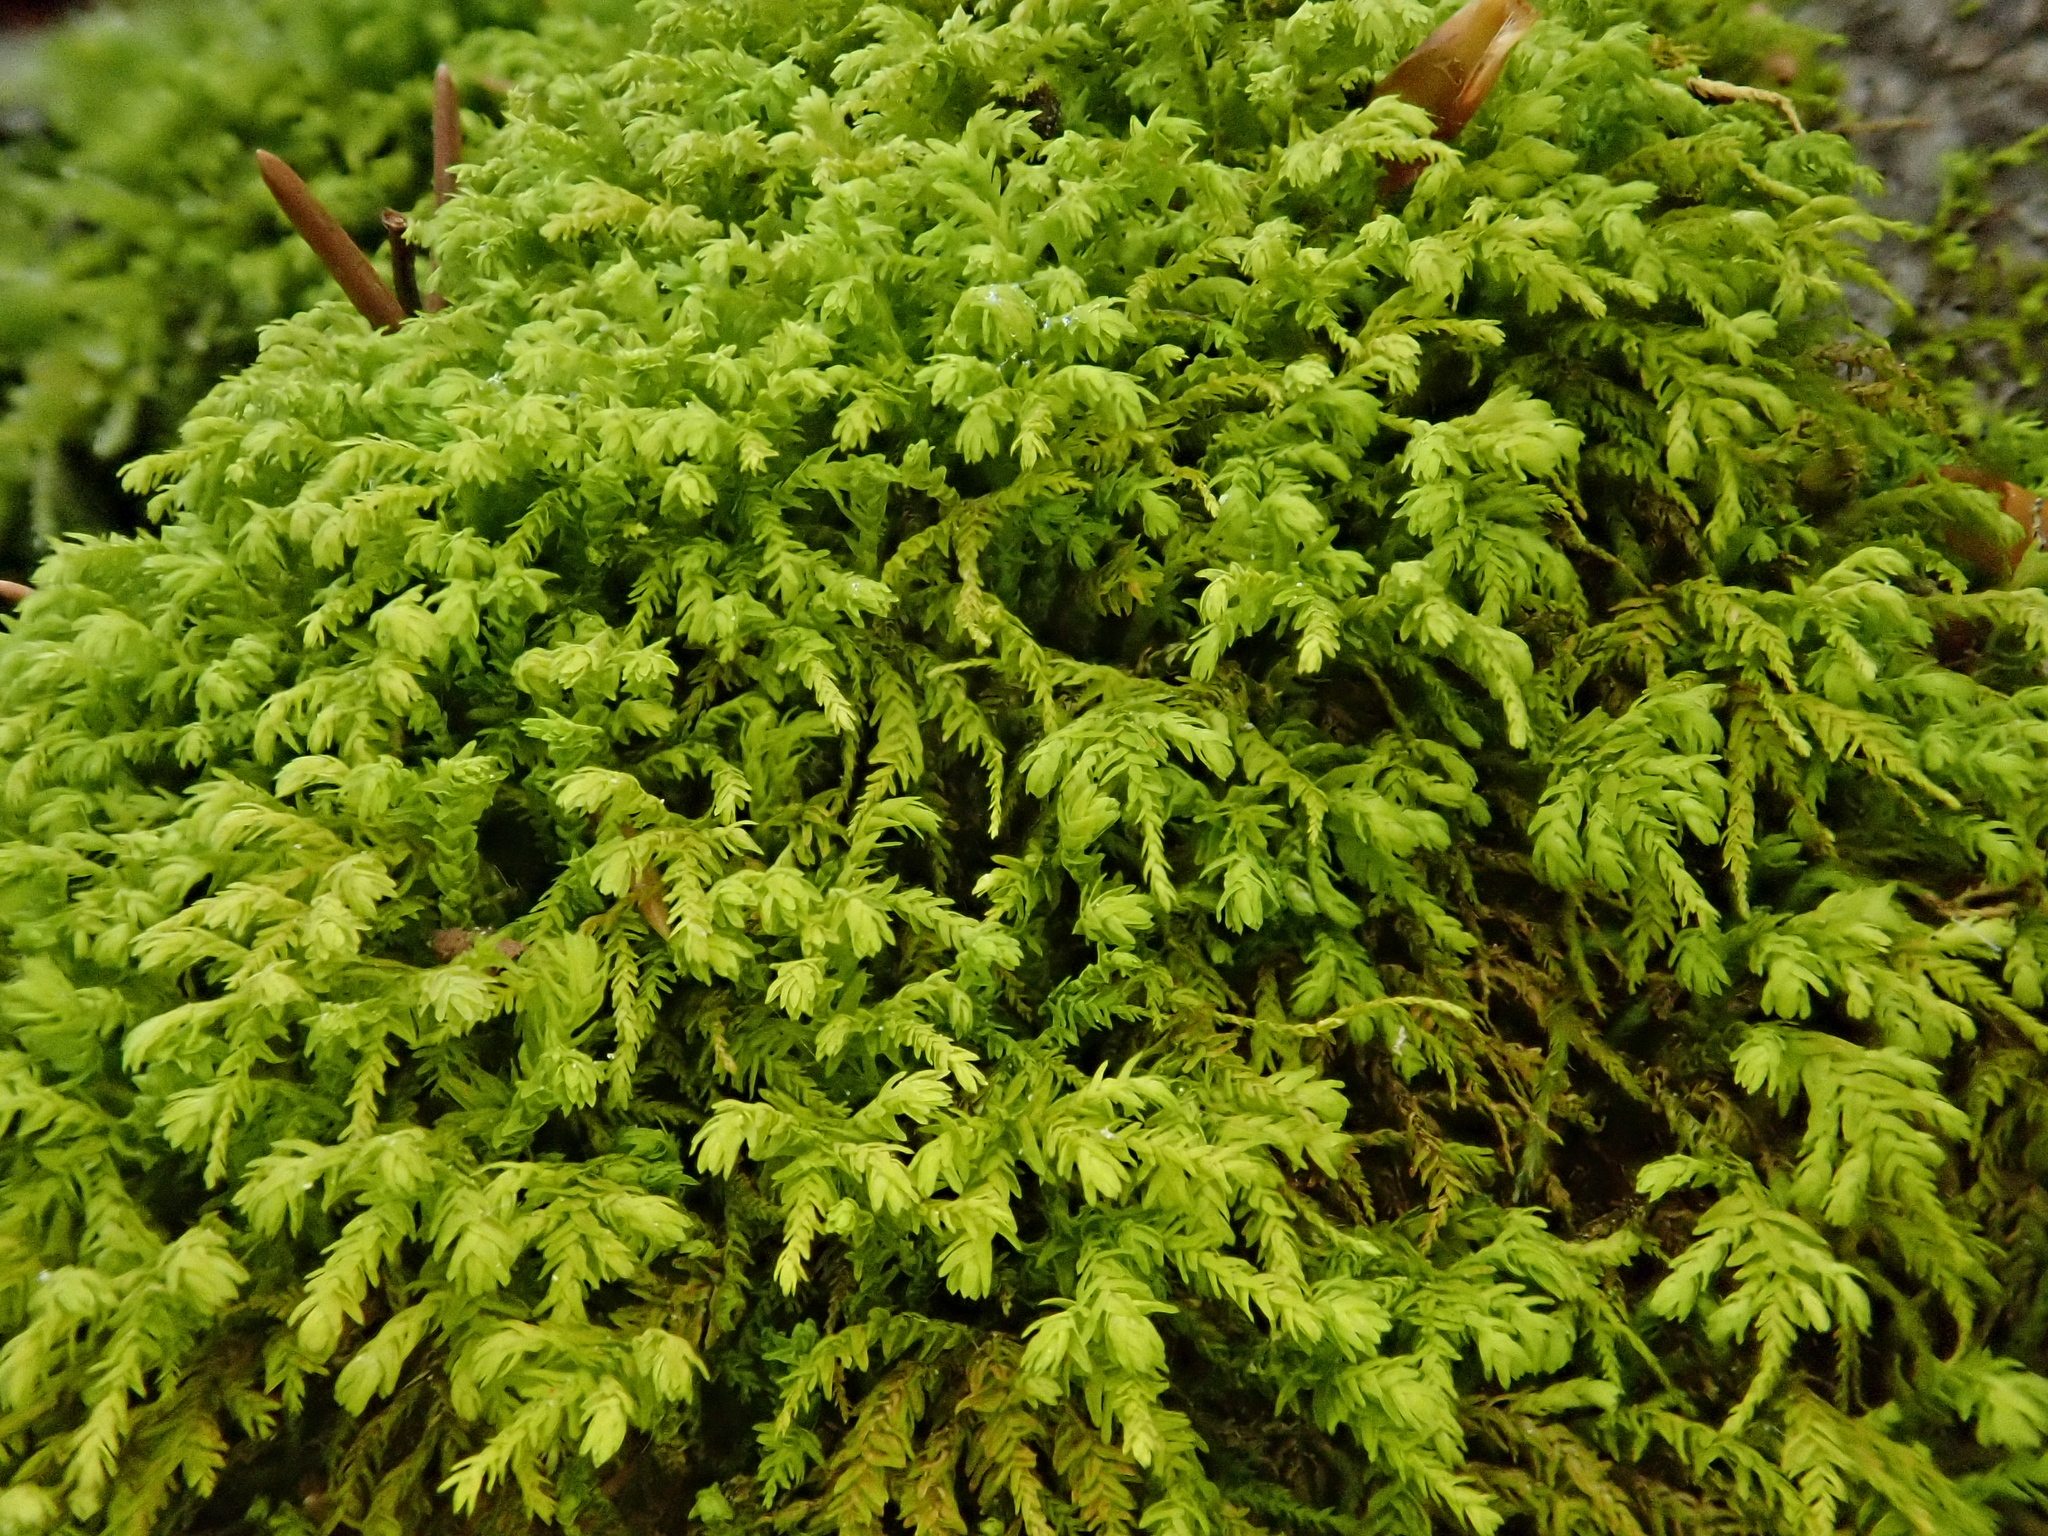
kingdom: Plantae
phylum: Bryophyta
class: Bryopsida
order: Hypnales
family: Neckeraceae
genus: Pseudanomodon
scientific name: Pseudanomodon attenuatus
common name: Tree-skirt moss
